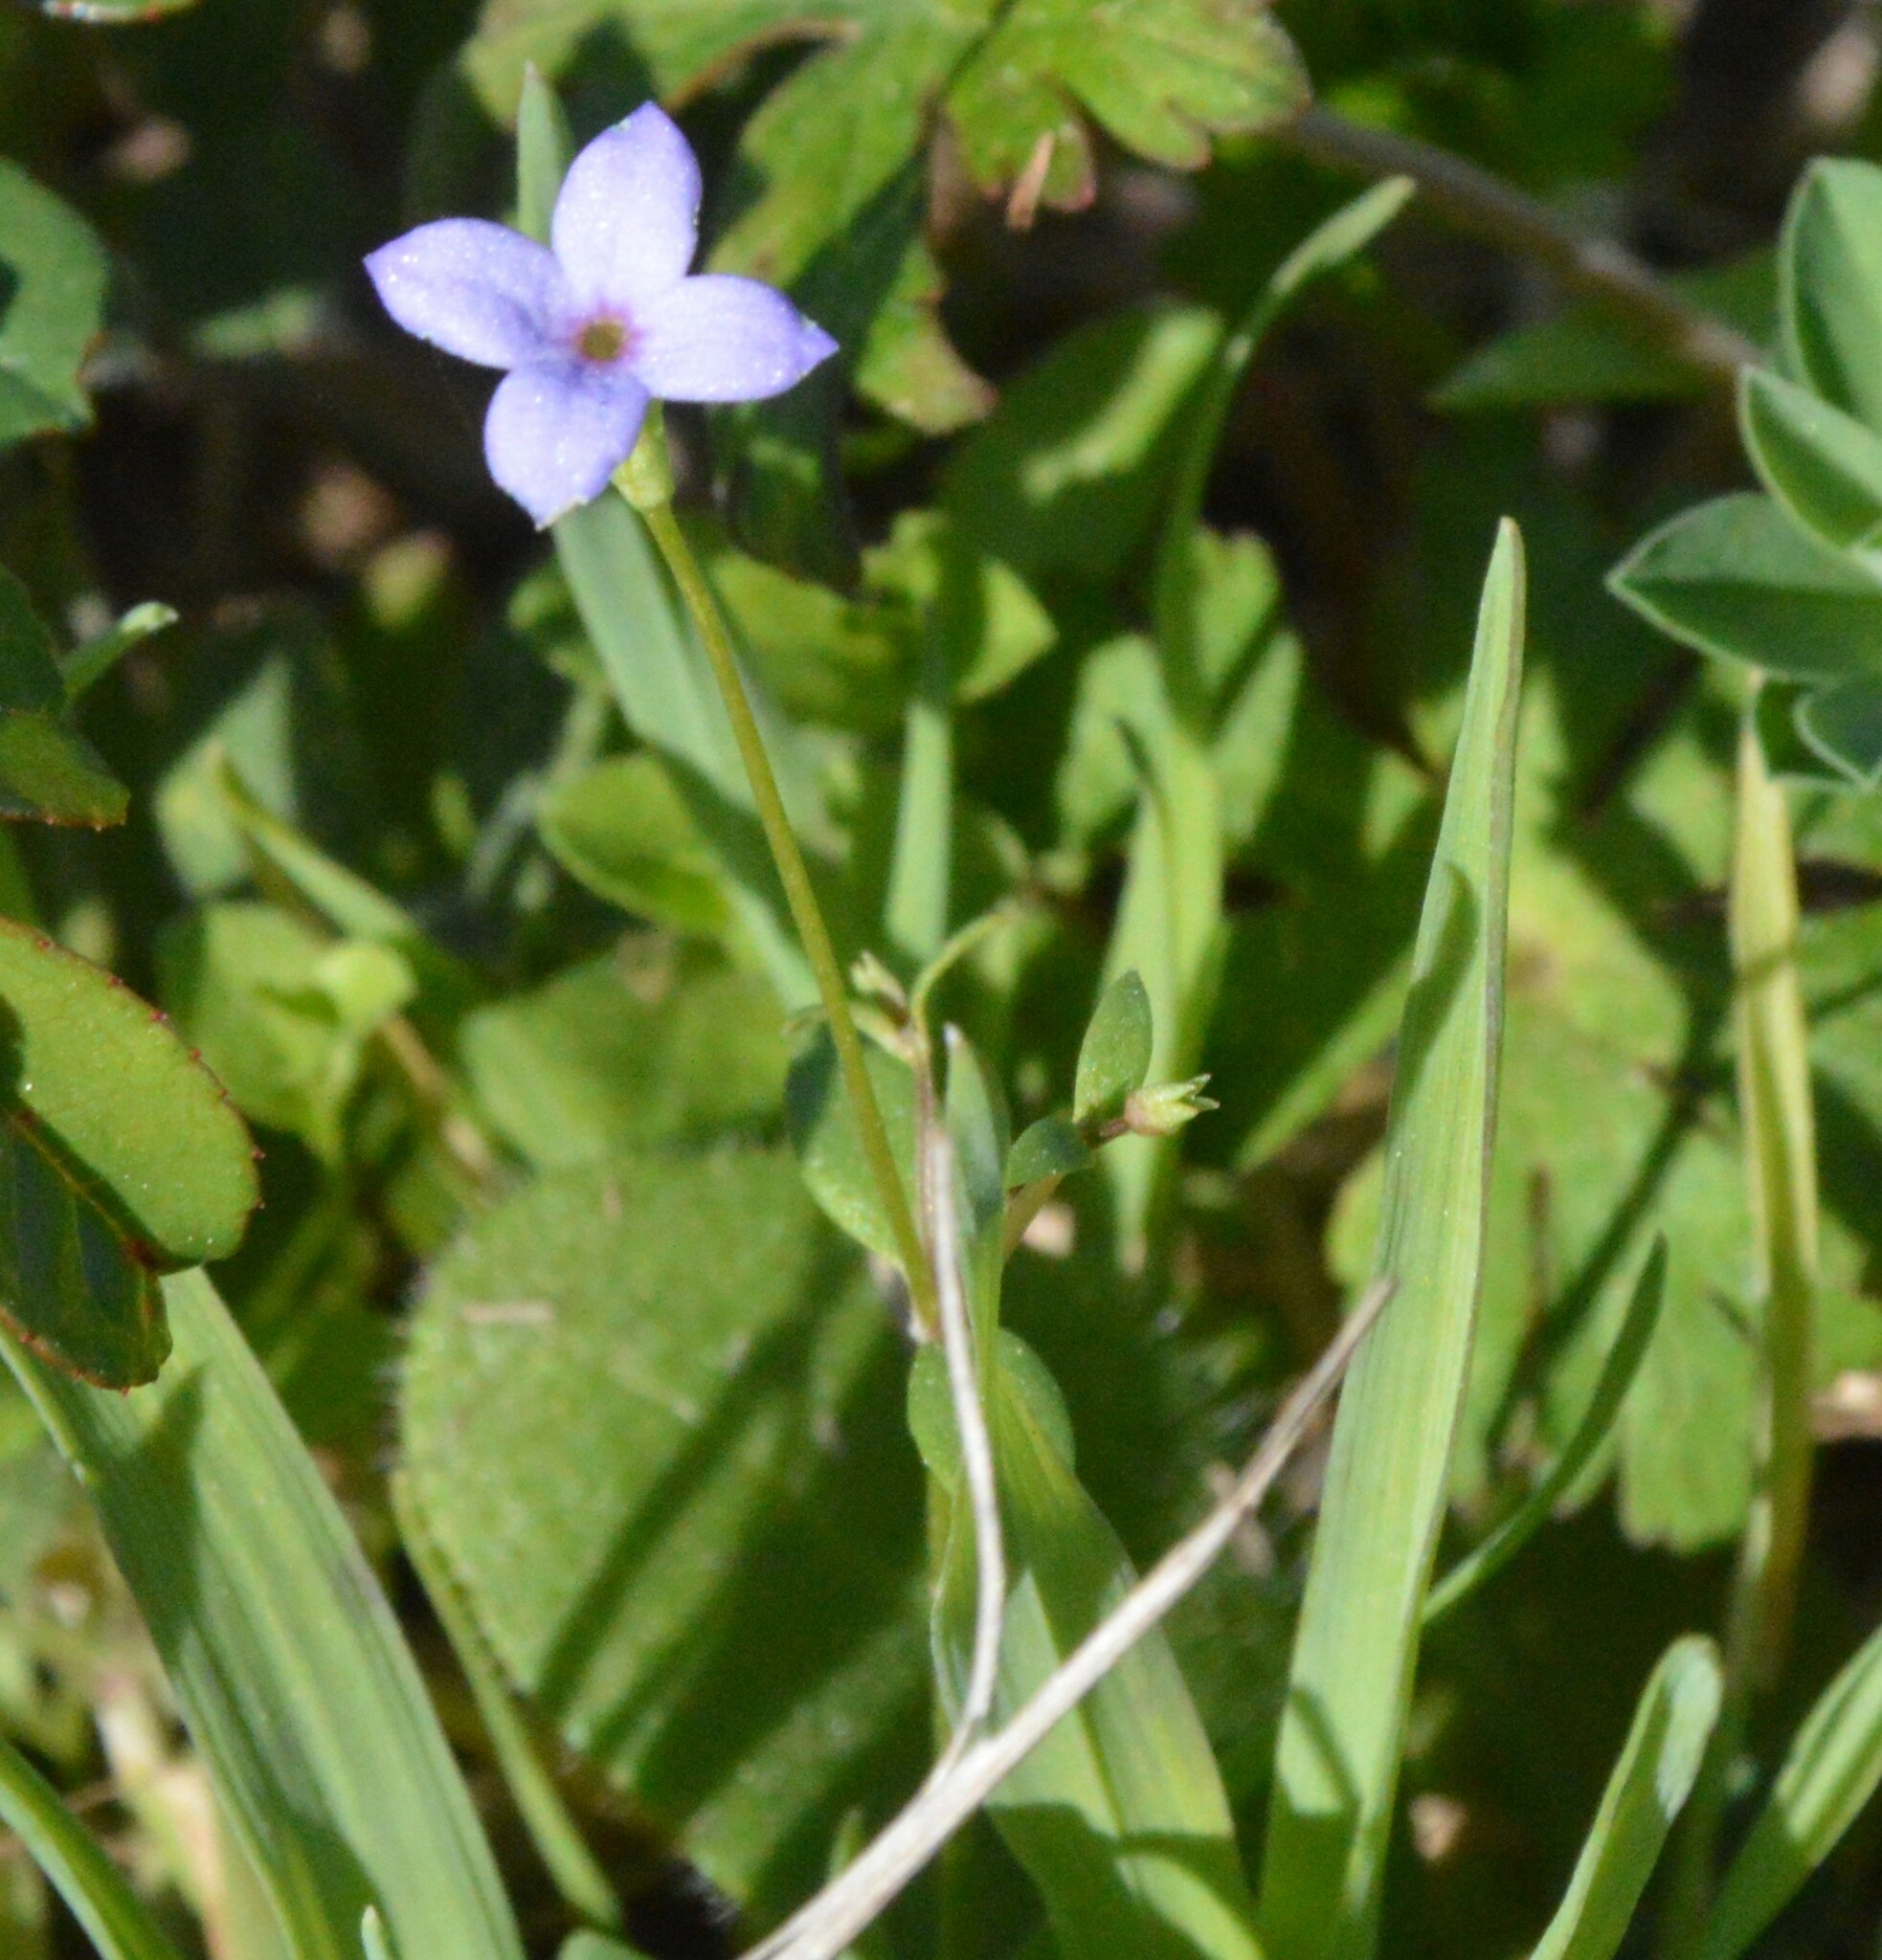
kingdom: Plantae
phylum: Tracheophyta
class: Magnoliopsida
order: Gentianales
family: Rubiaceae
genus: Houstonia
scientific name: Houstonia pusilla
